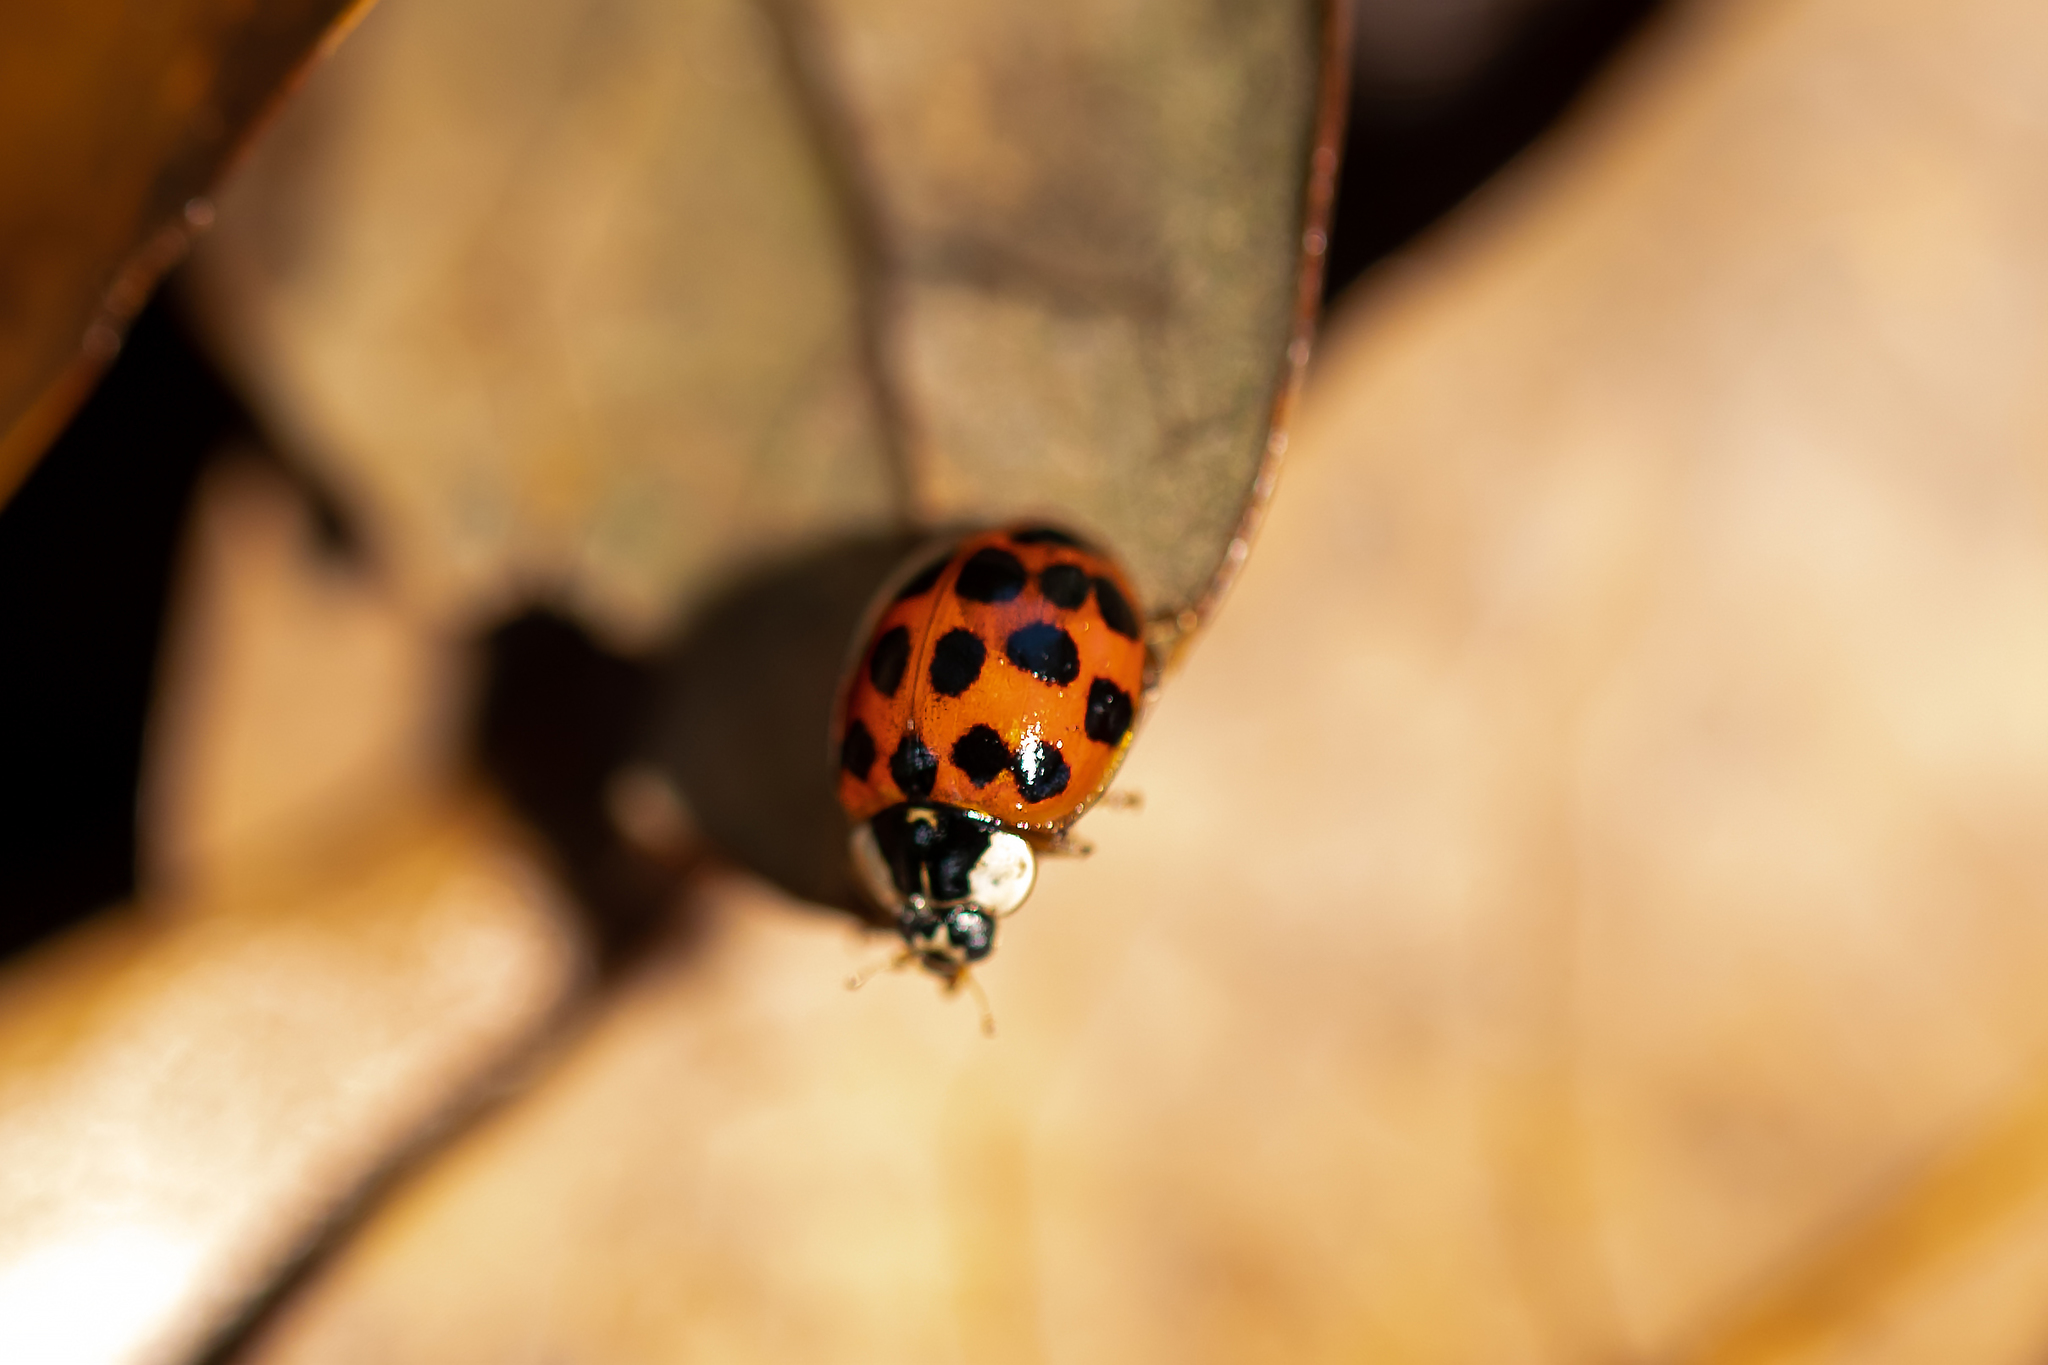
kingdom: Animalia
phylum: Arthropoda
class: Insecta
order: Coleoptera
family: Coccinellidae
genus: Harmonia
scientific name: Harmonia axyridis
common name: Harlequin ladybird
